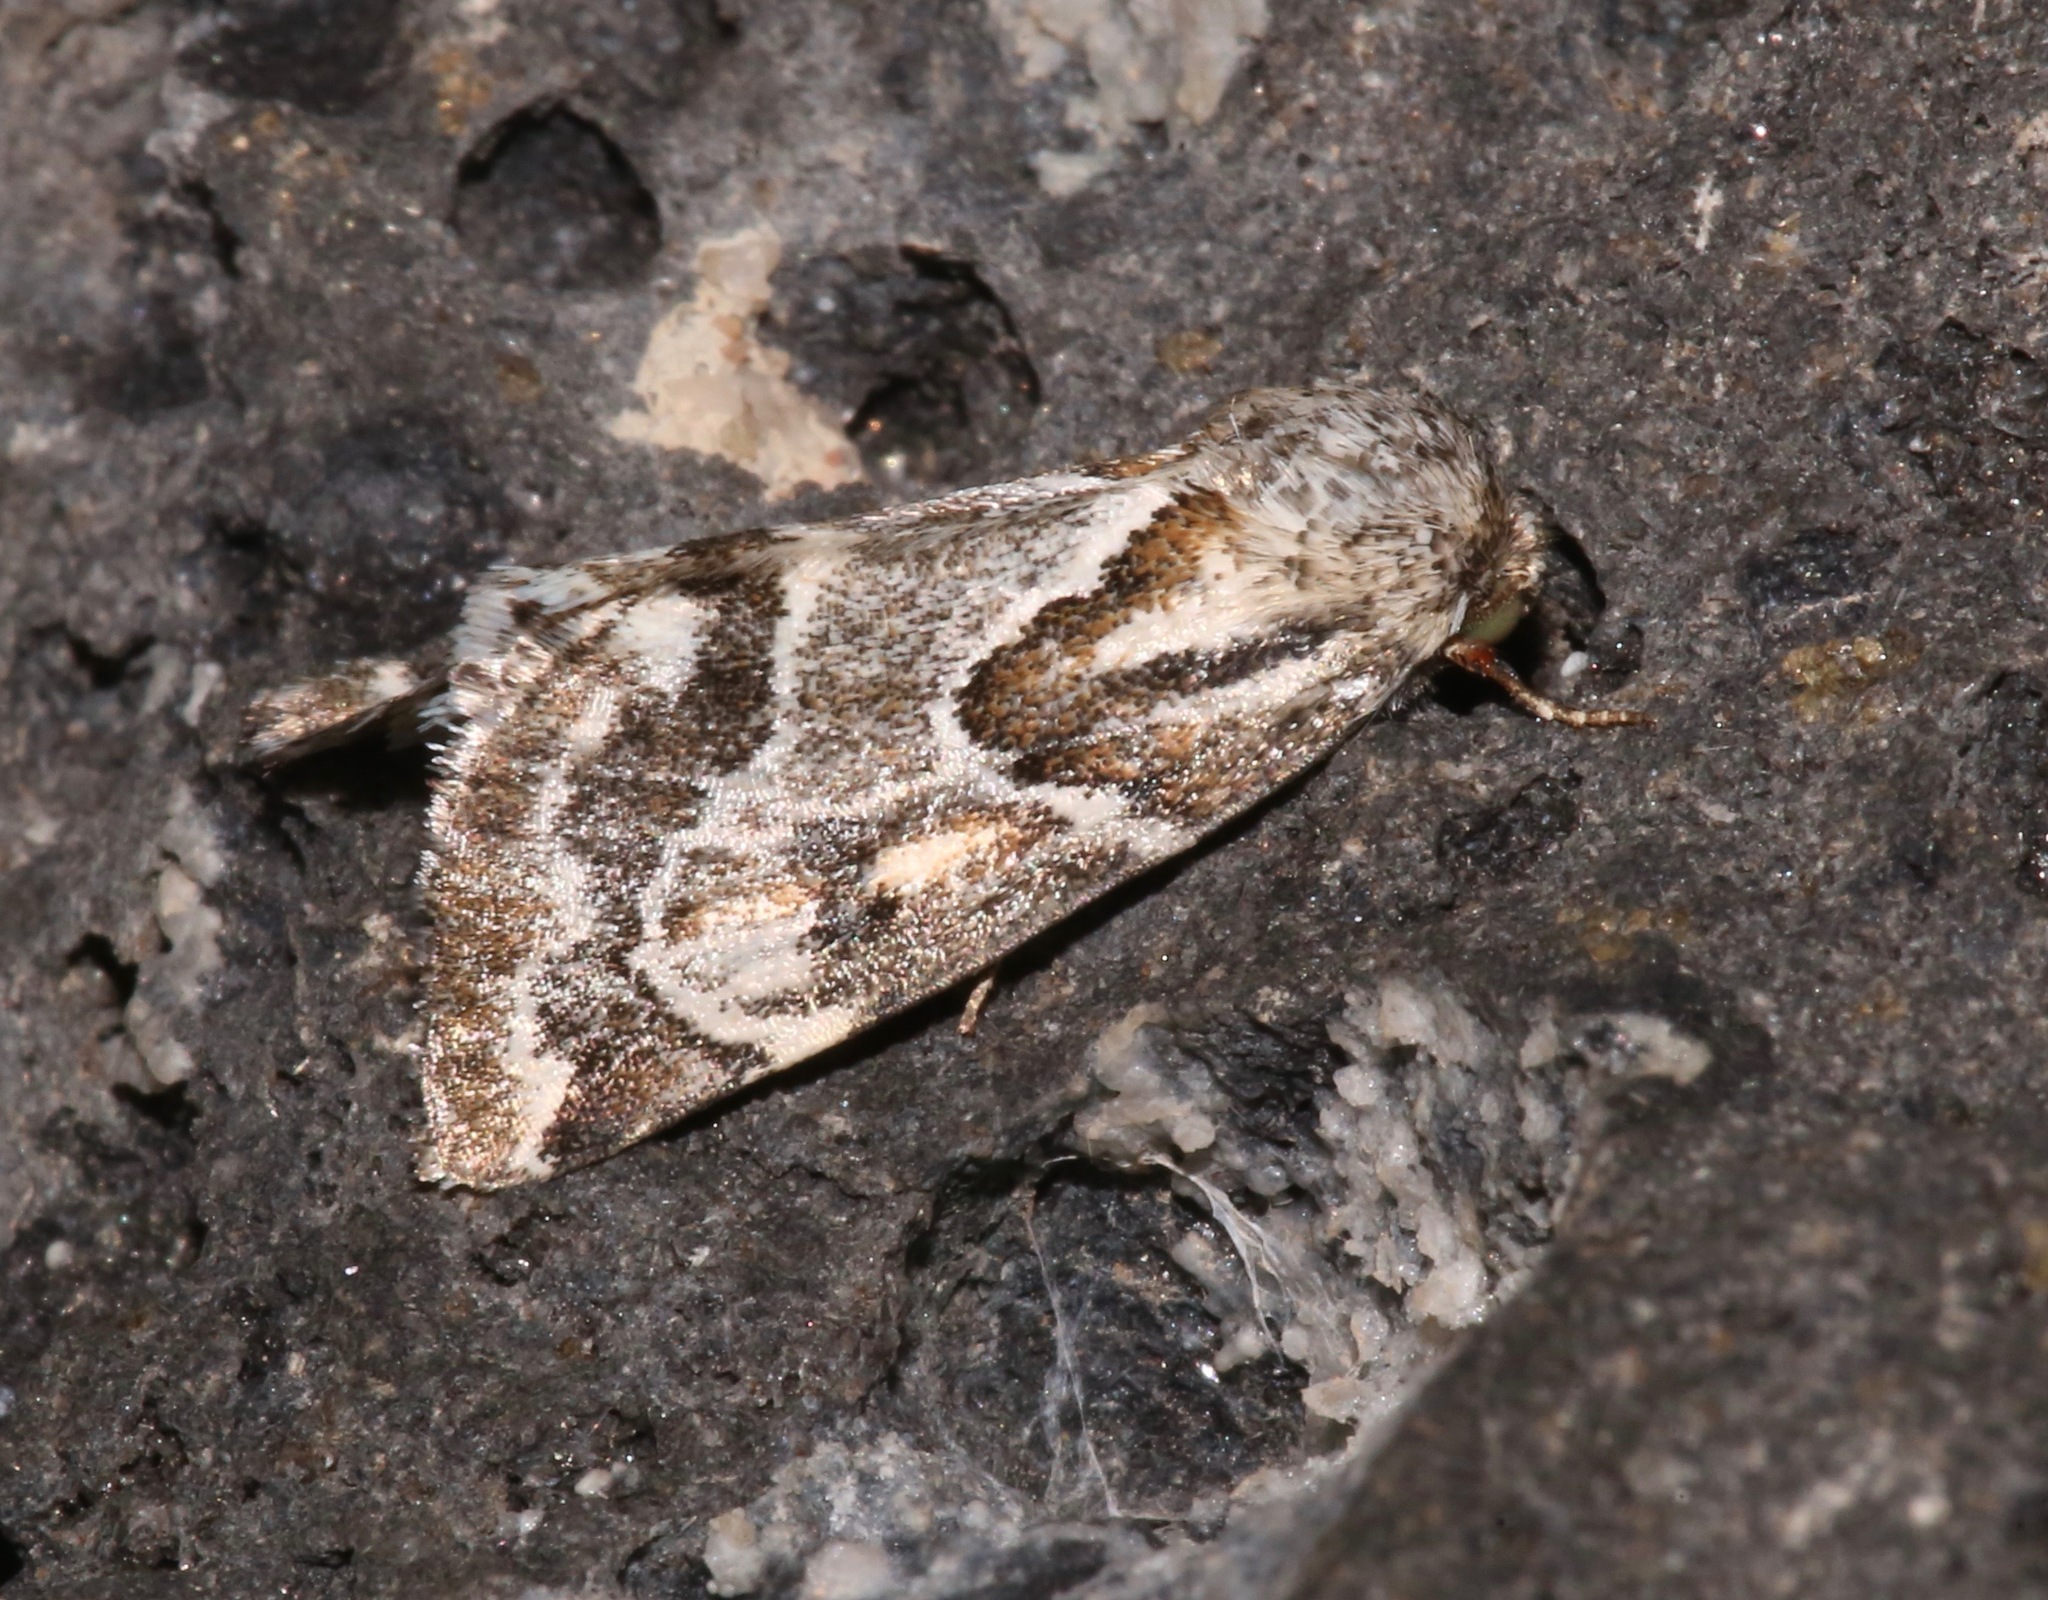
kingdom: Animalia
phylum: Arthropoda
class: Insecta
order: Lepidoptera
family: Noctuidae
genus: Schinia
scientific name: Schinia acutilinea
